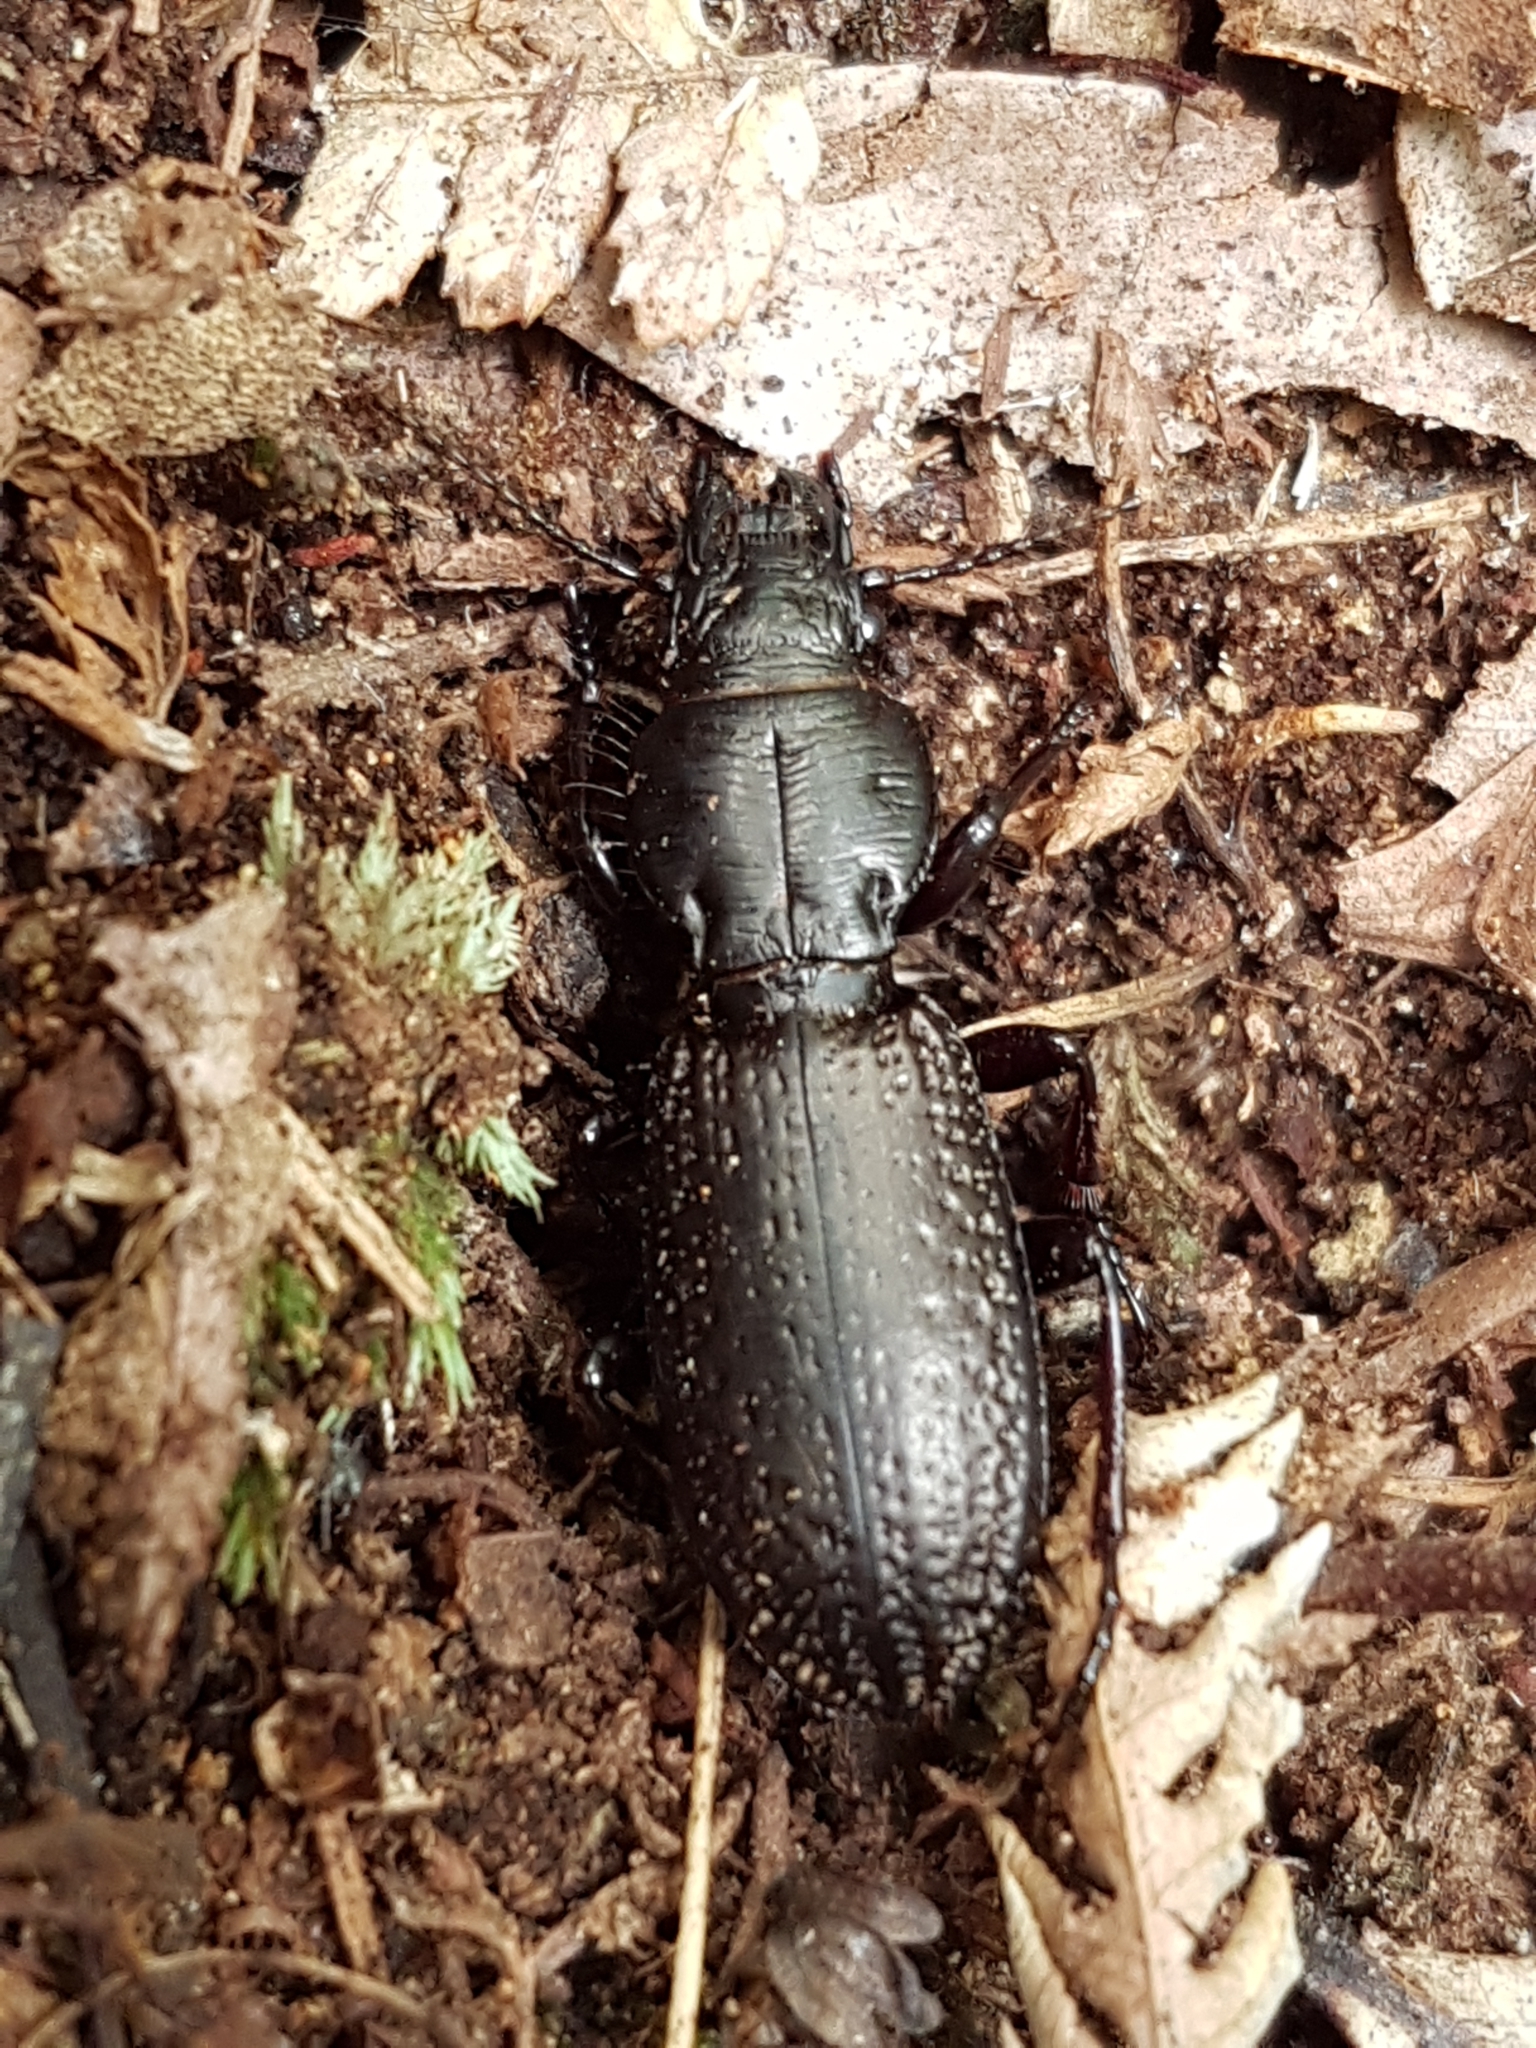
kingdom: Animalia
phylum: Arthropoda
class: Insecta
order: Coleoptera
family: Carabidae
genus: Mecodema
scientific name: Mecodema crenaticolle
